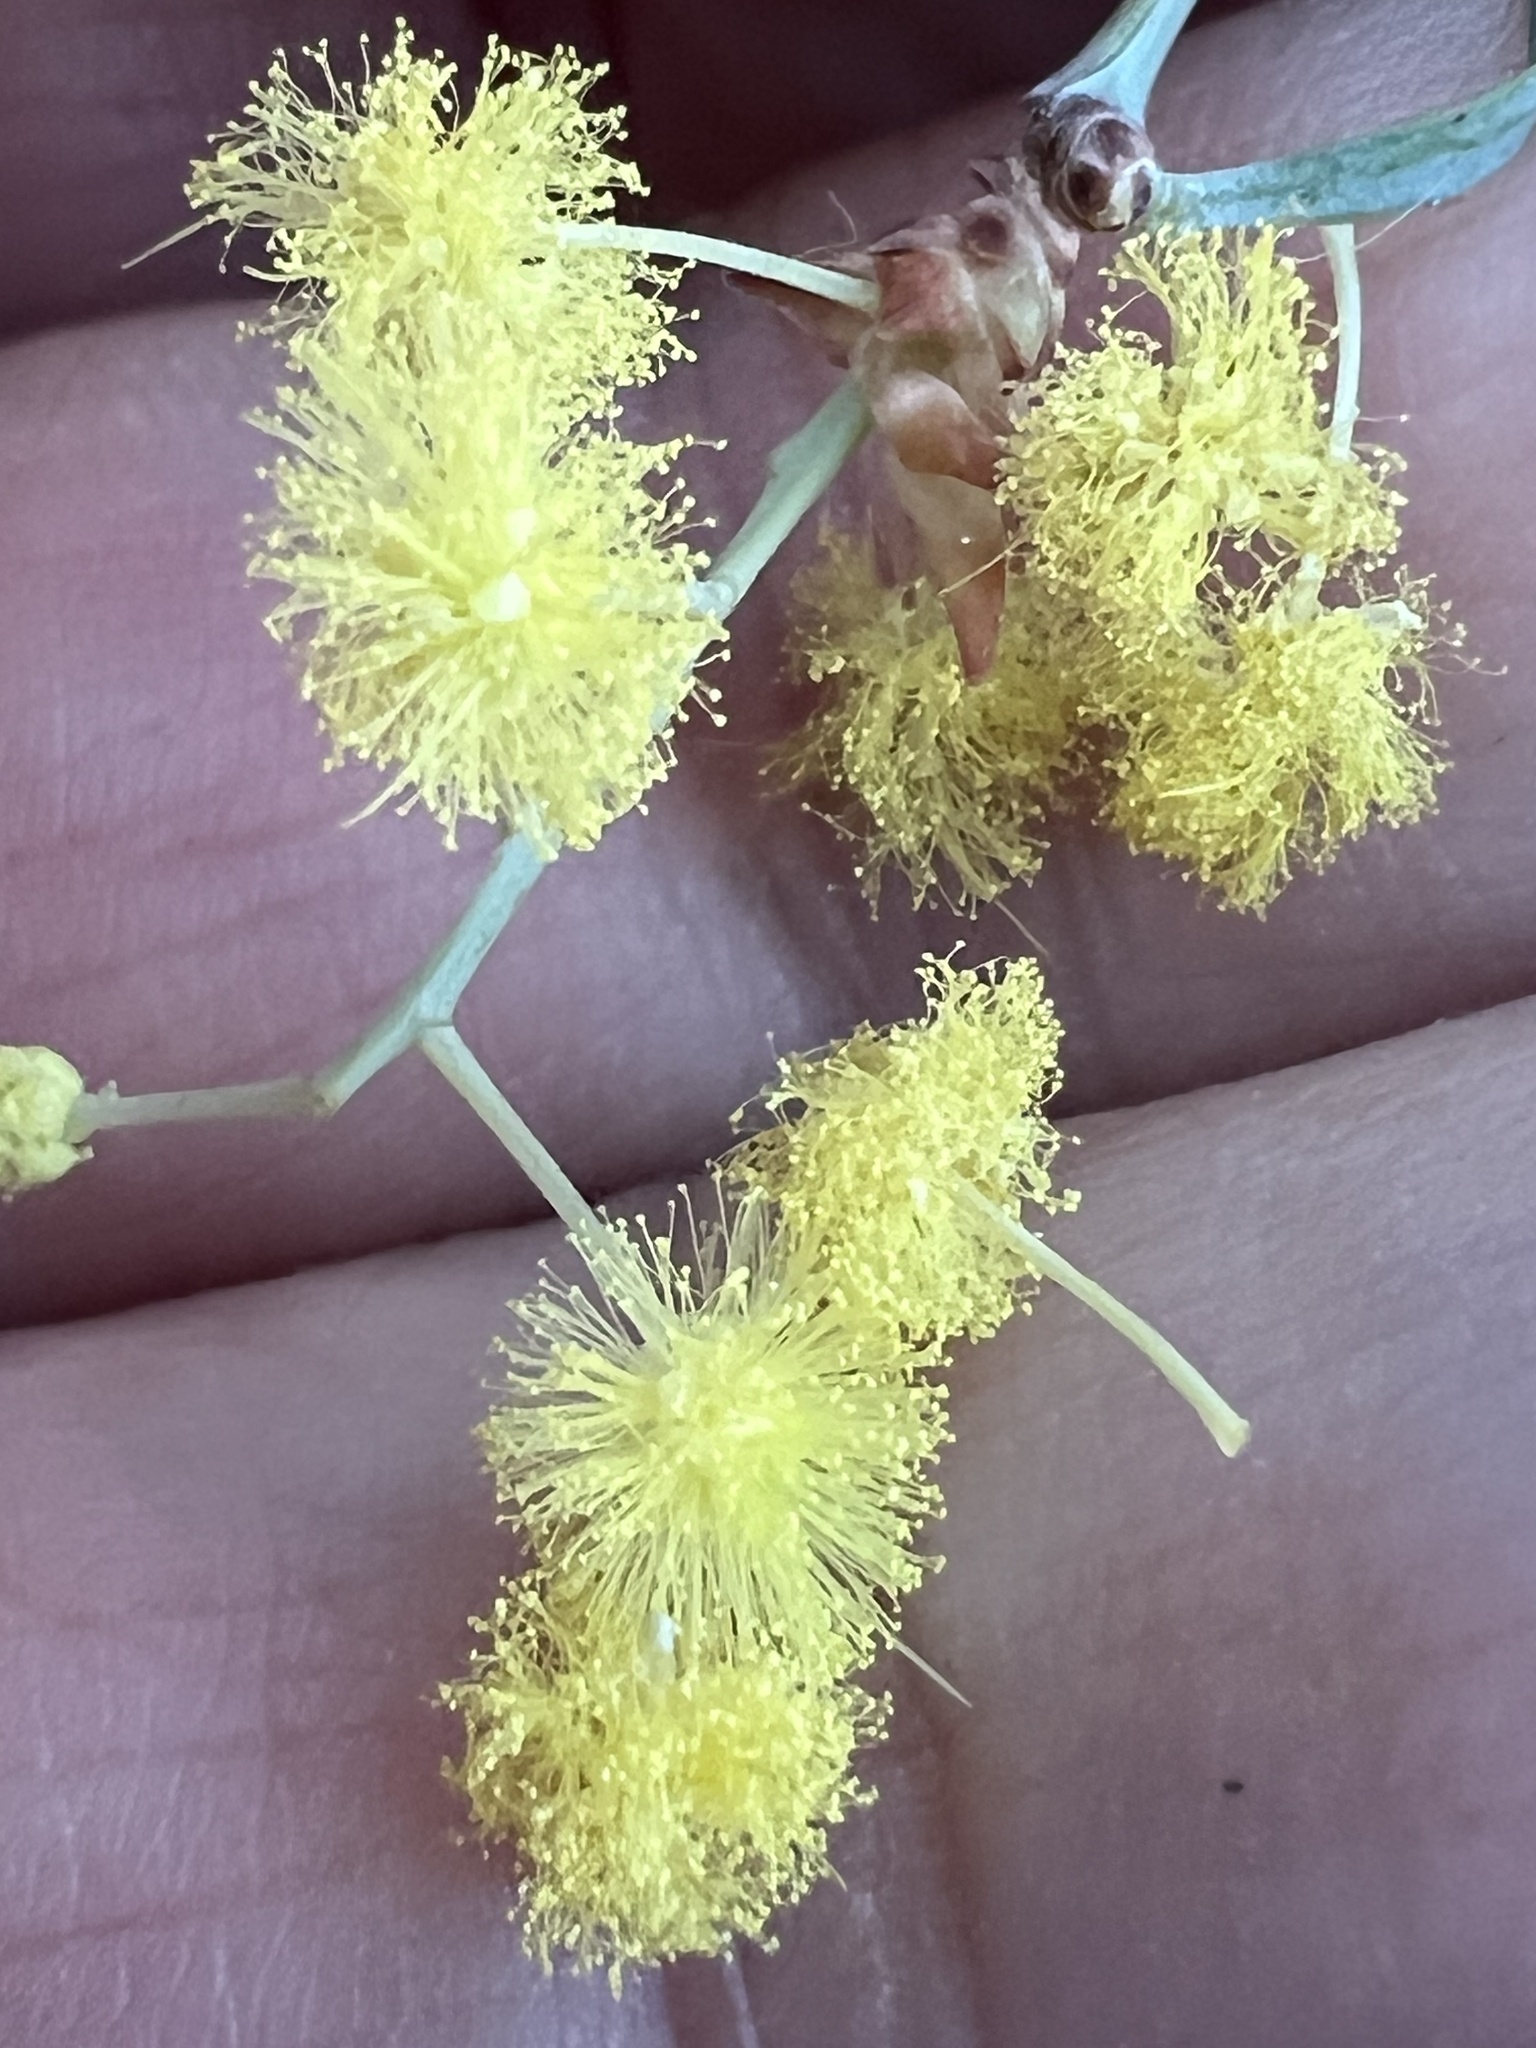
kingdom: Plantae
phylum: Tracheophyta
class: Magnoliopsida
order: Fabales
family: Fabaceae
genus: Acacia
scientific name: Acacia stenophylla
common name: River cooba
